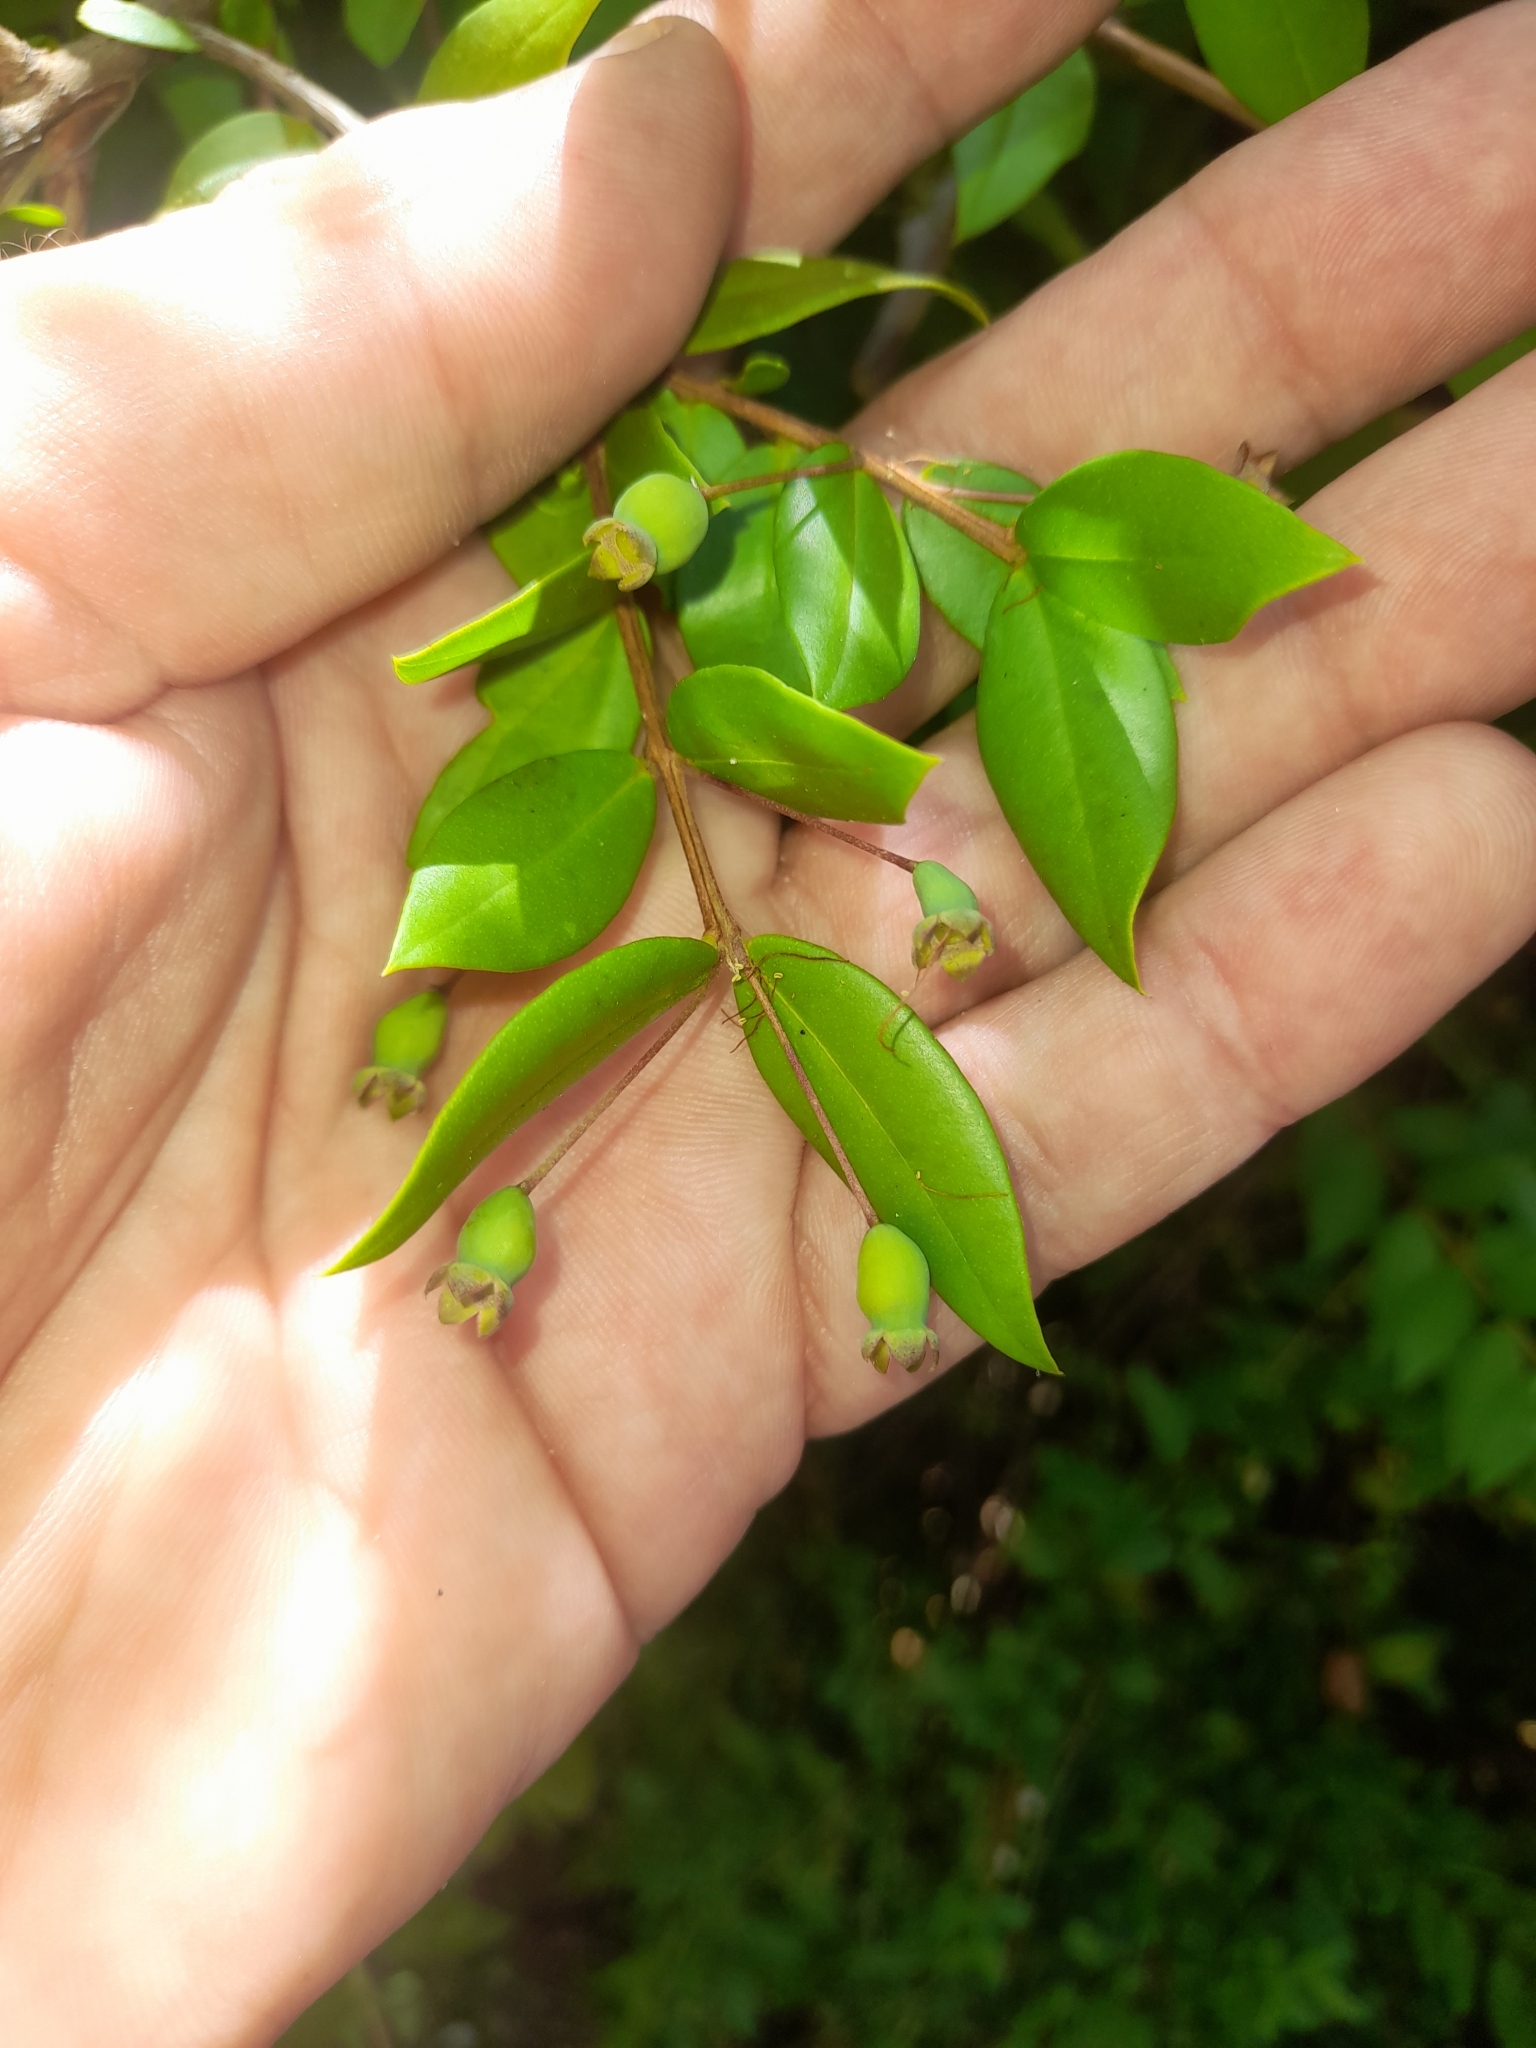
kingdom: Plantae
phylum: Tracheophyta
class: Magnoliopsida
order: Myrtales
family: Myrtaceae
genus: Myrtus
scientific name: Myrtus communis
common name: Myrtle
